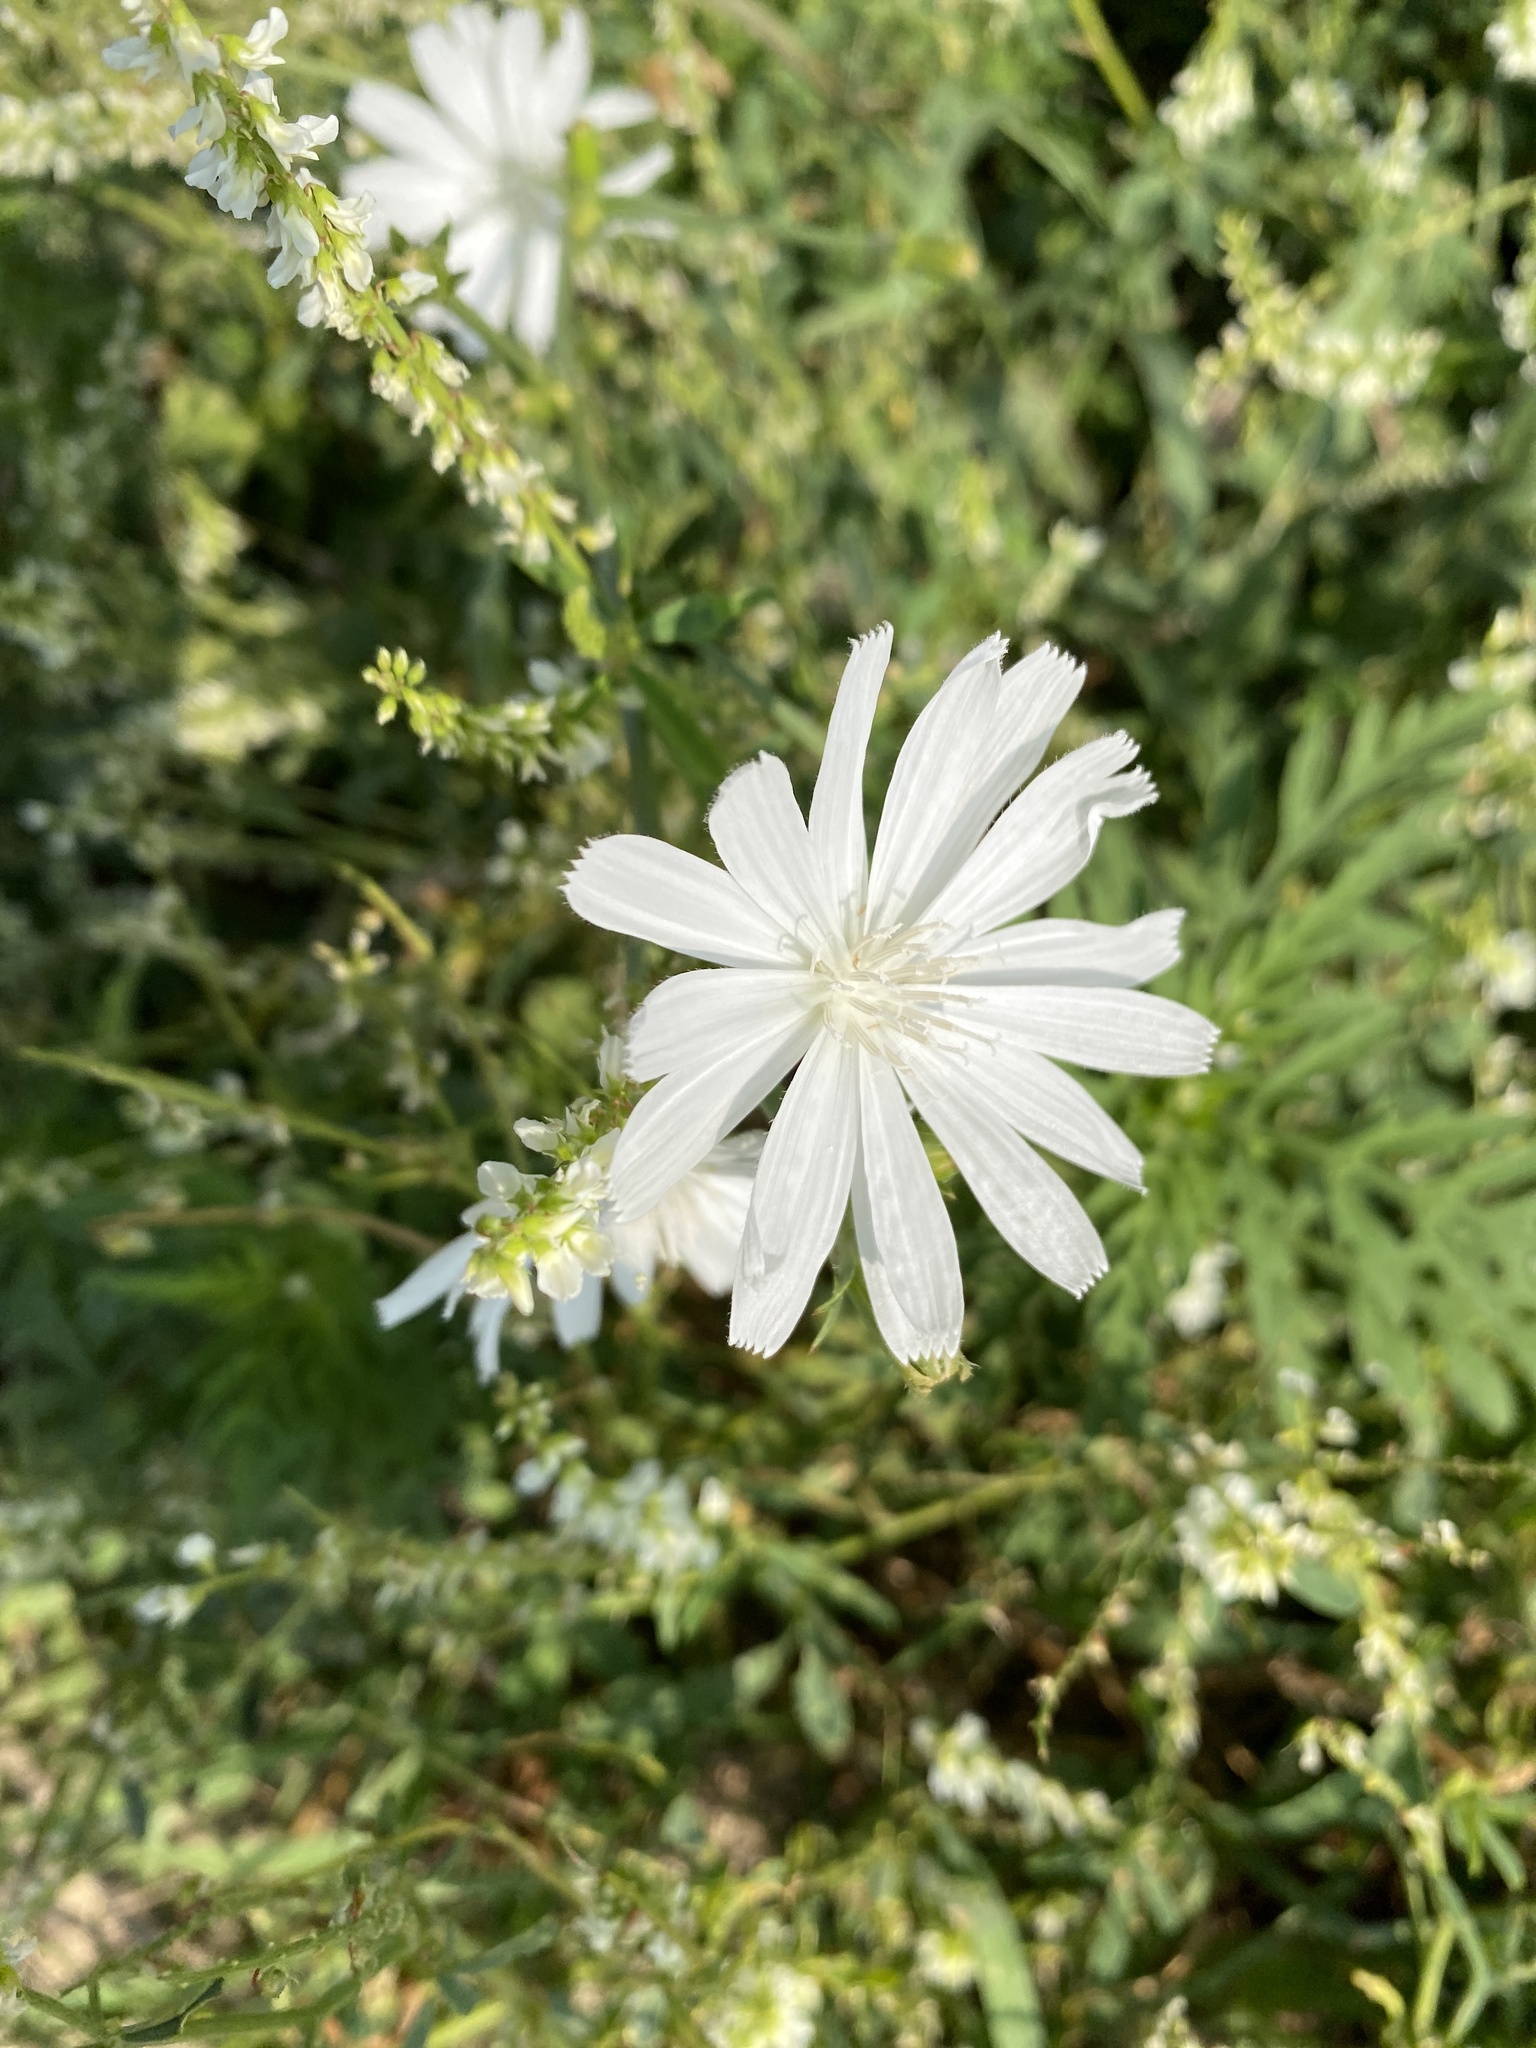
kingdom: Plantae
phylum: Tracheophyta
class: Magnoliopsida
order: Asterales
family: Asteraceae
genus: Cichorium
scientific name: Cichorium intybus
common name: Chicory
